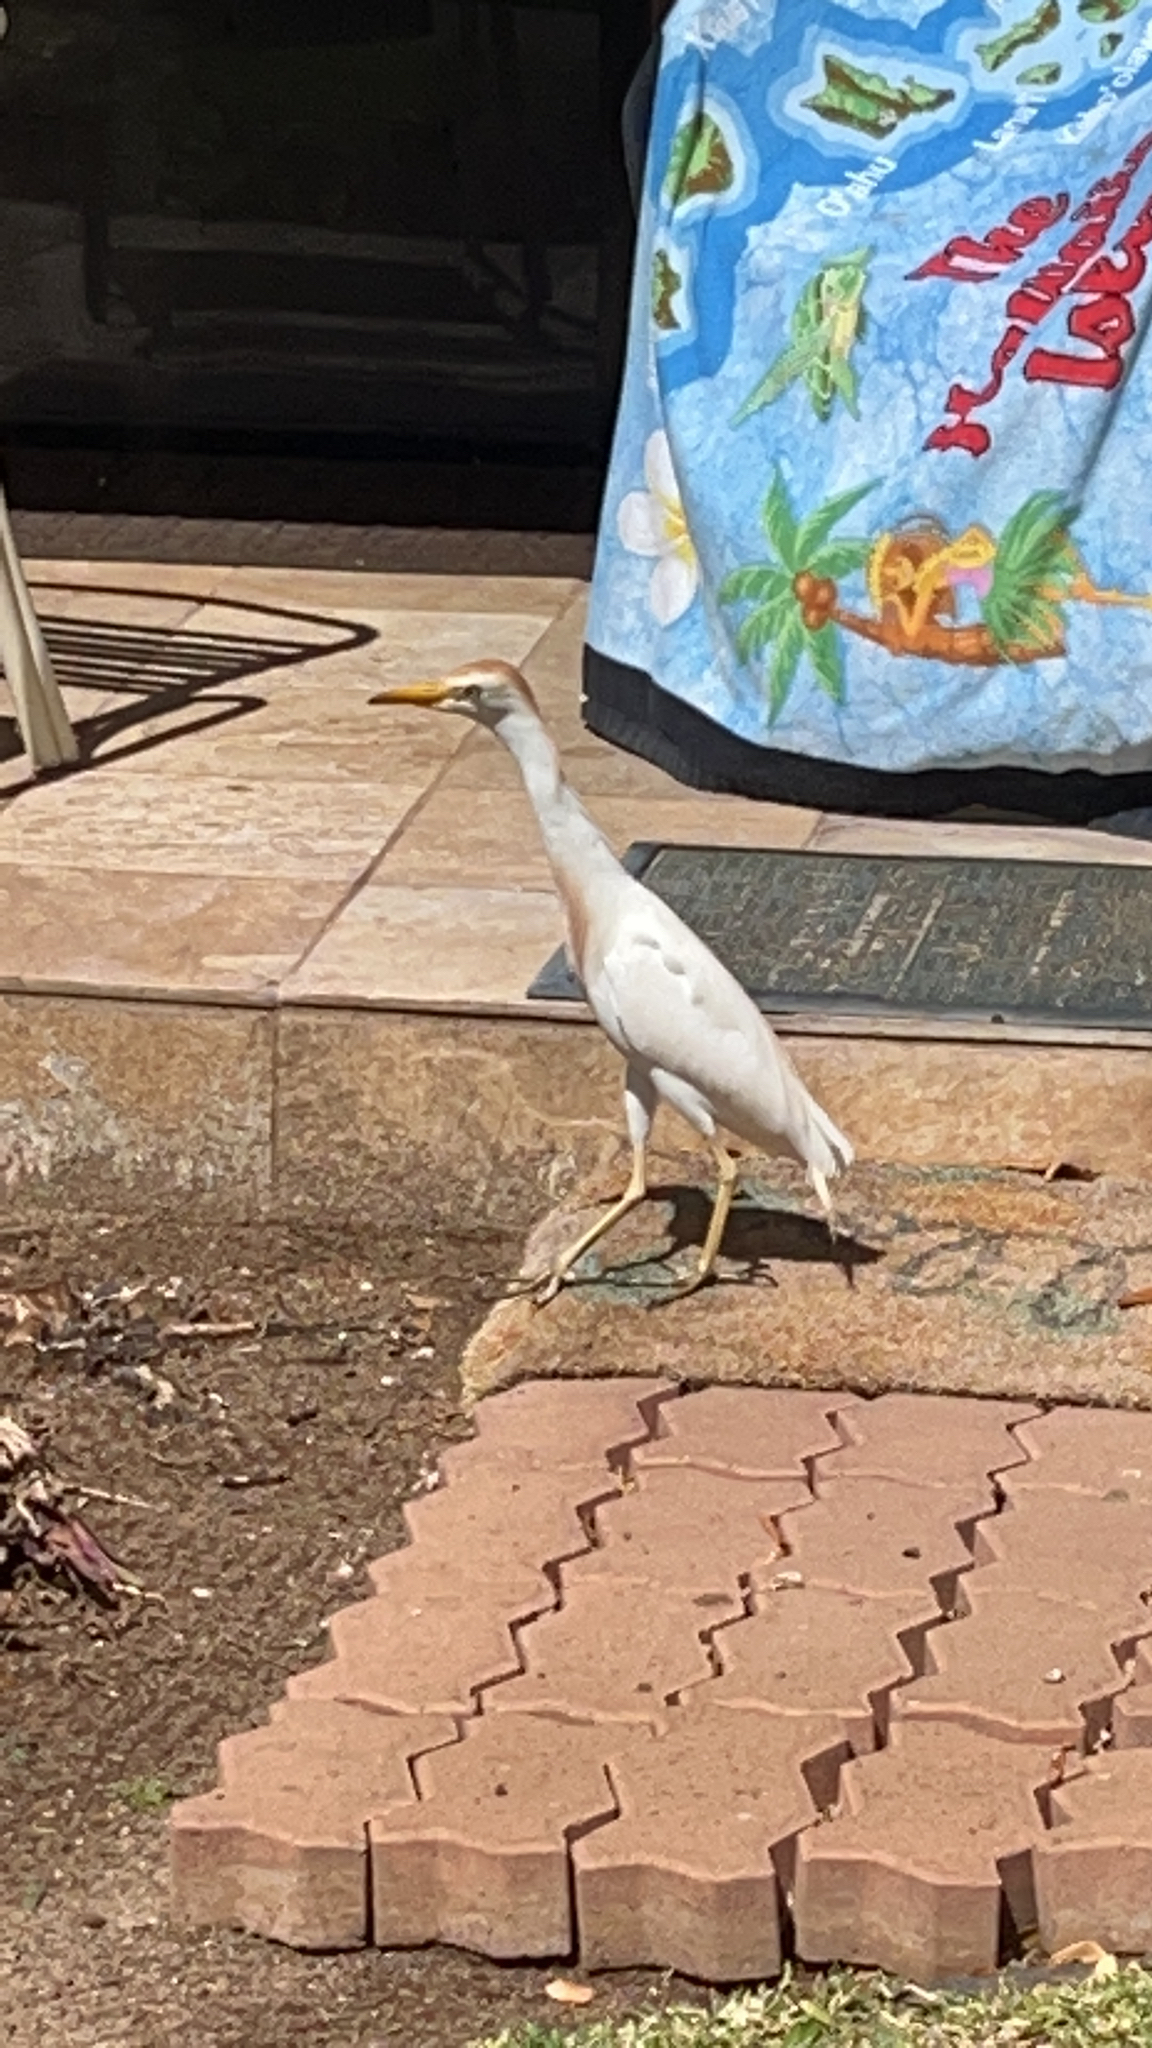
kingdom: Animalia
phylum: Chordata
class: Aves
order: Pelecaniformes
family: Ardeidae
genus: Bubulcus
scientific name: Bubulcus ibis
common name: Cattle egret
